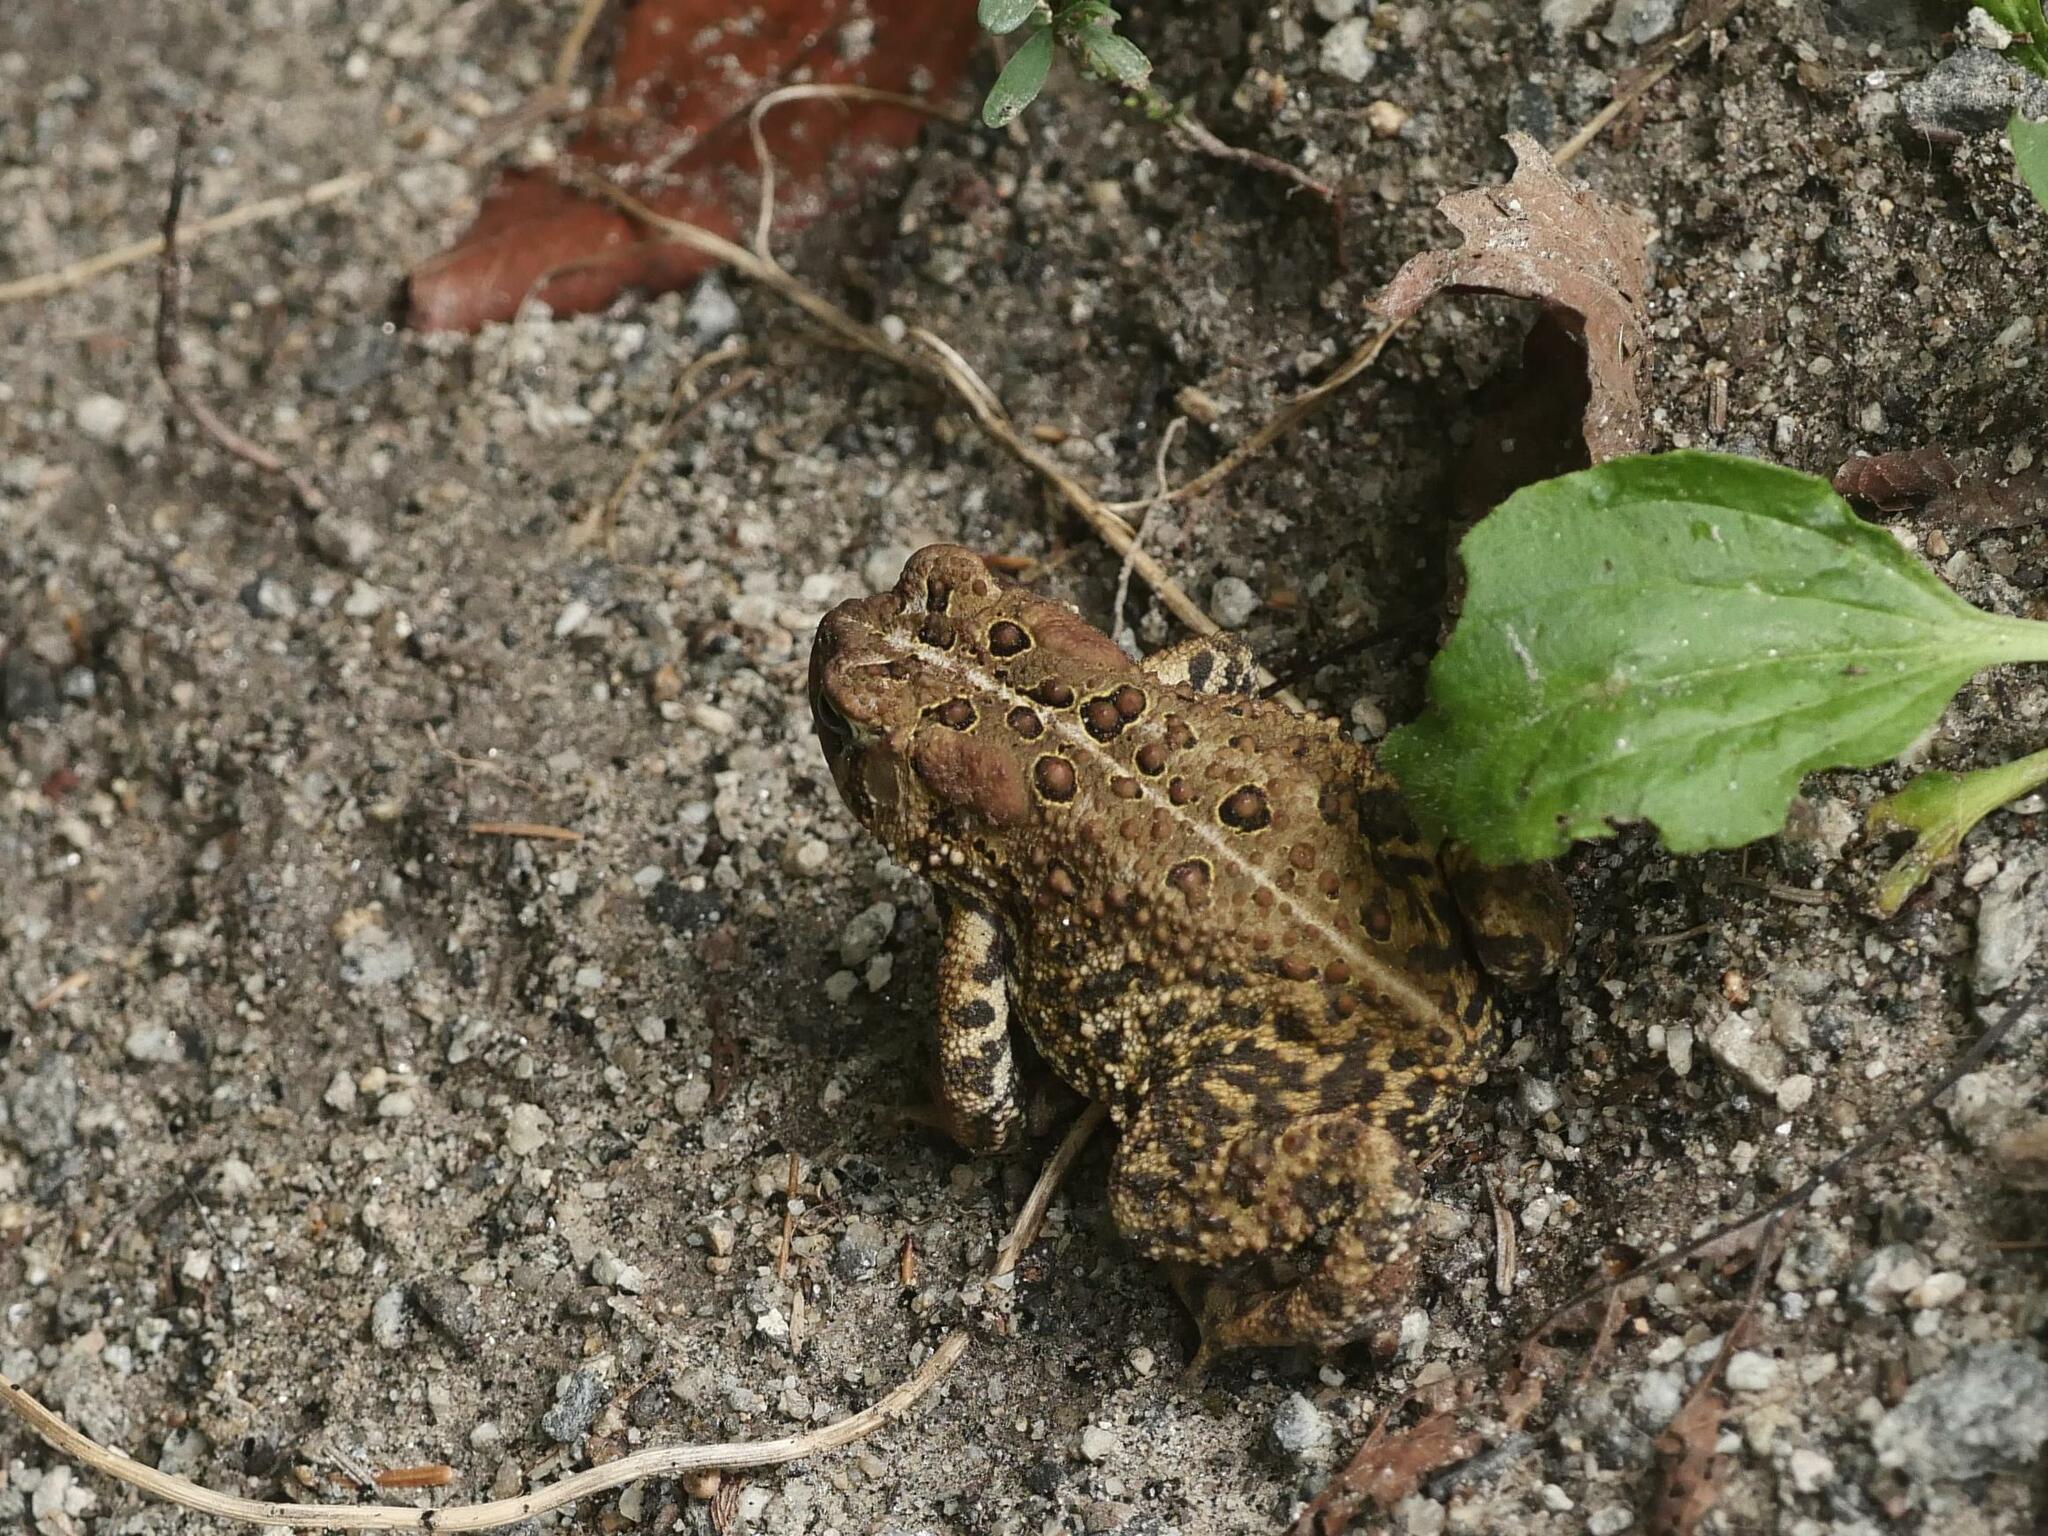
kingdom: Animalia
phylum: Chordata
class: Amphibia
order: Anura
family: Bufonidae
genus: Anaxyrus
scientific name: Anaxyrus americanus
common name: American toad
